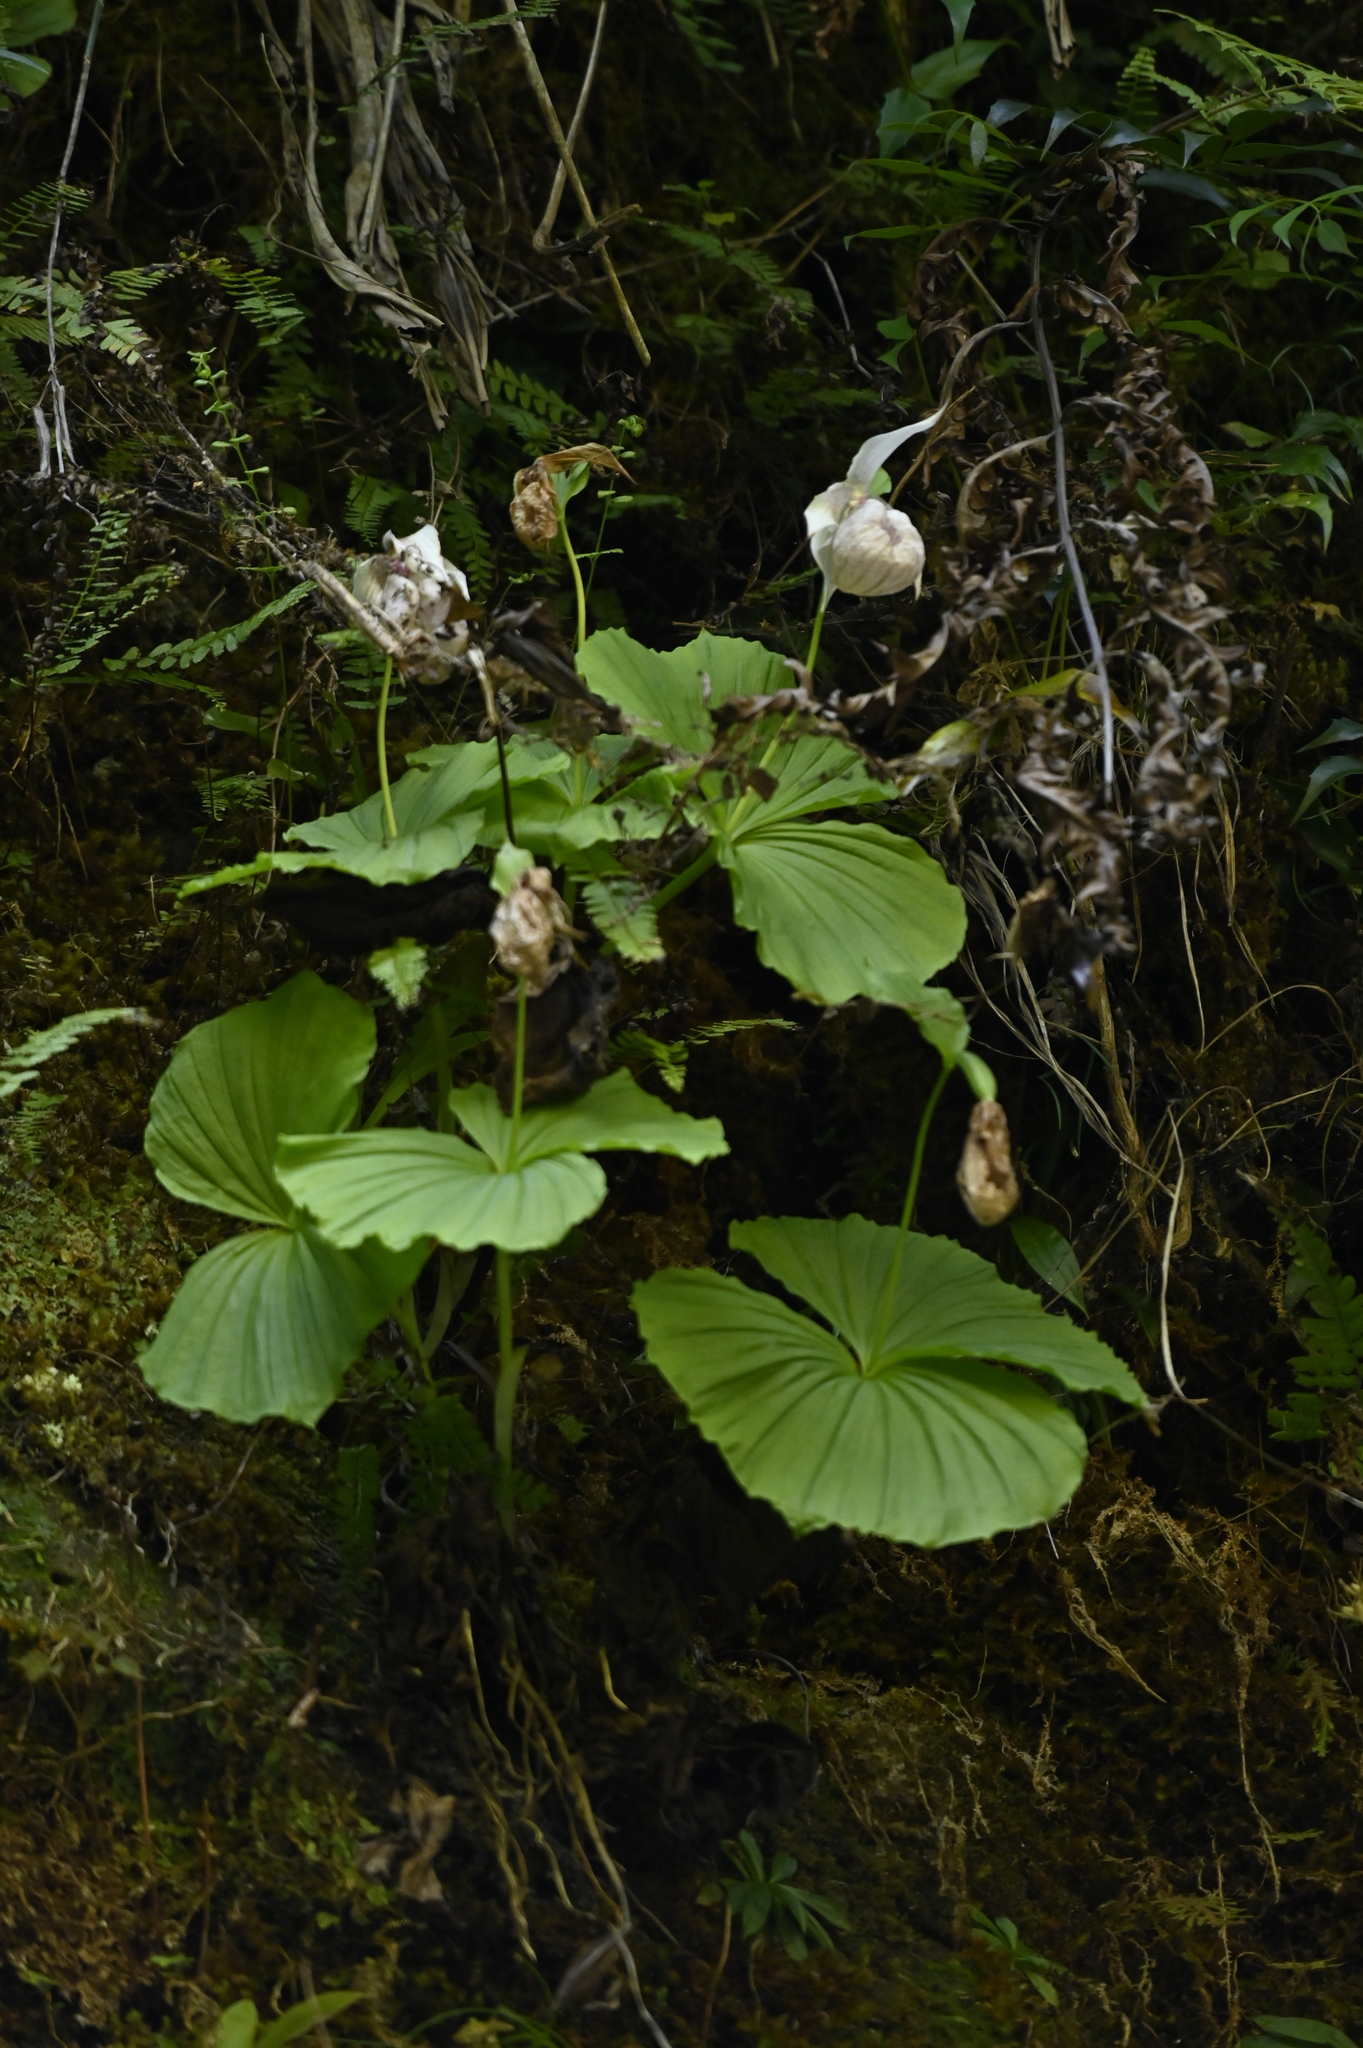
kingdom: Plantae
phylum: Tracheophyta
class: Liliopsida
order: Asparagales
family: Orchidaceae
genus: Cypripedium
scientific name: Cypripedium formosanum
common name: Formosa's lady's slipper
